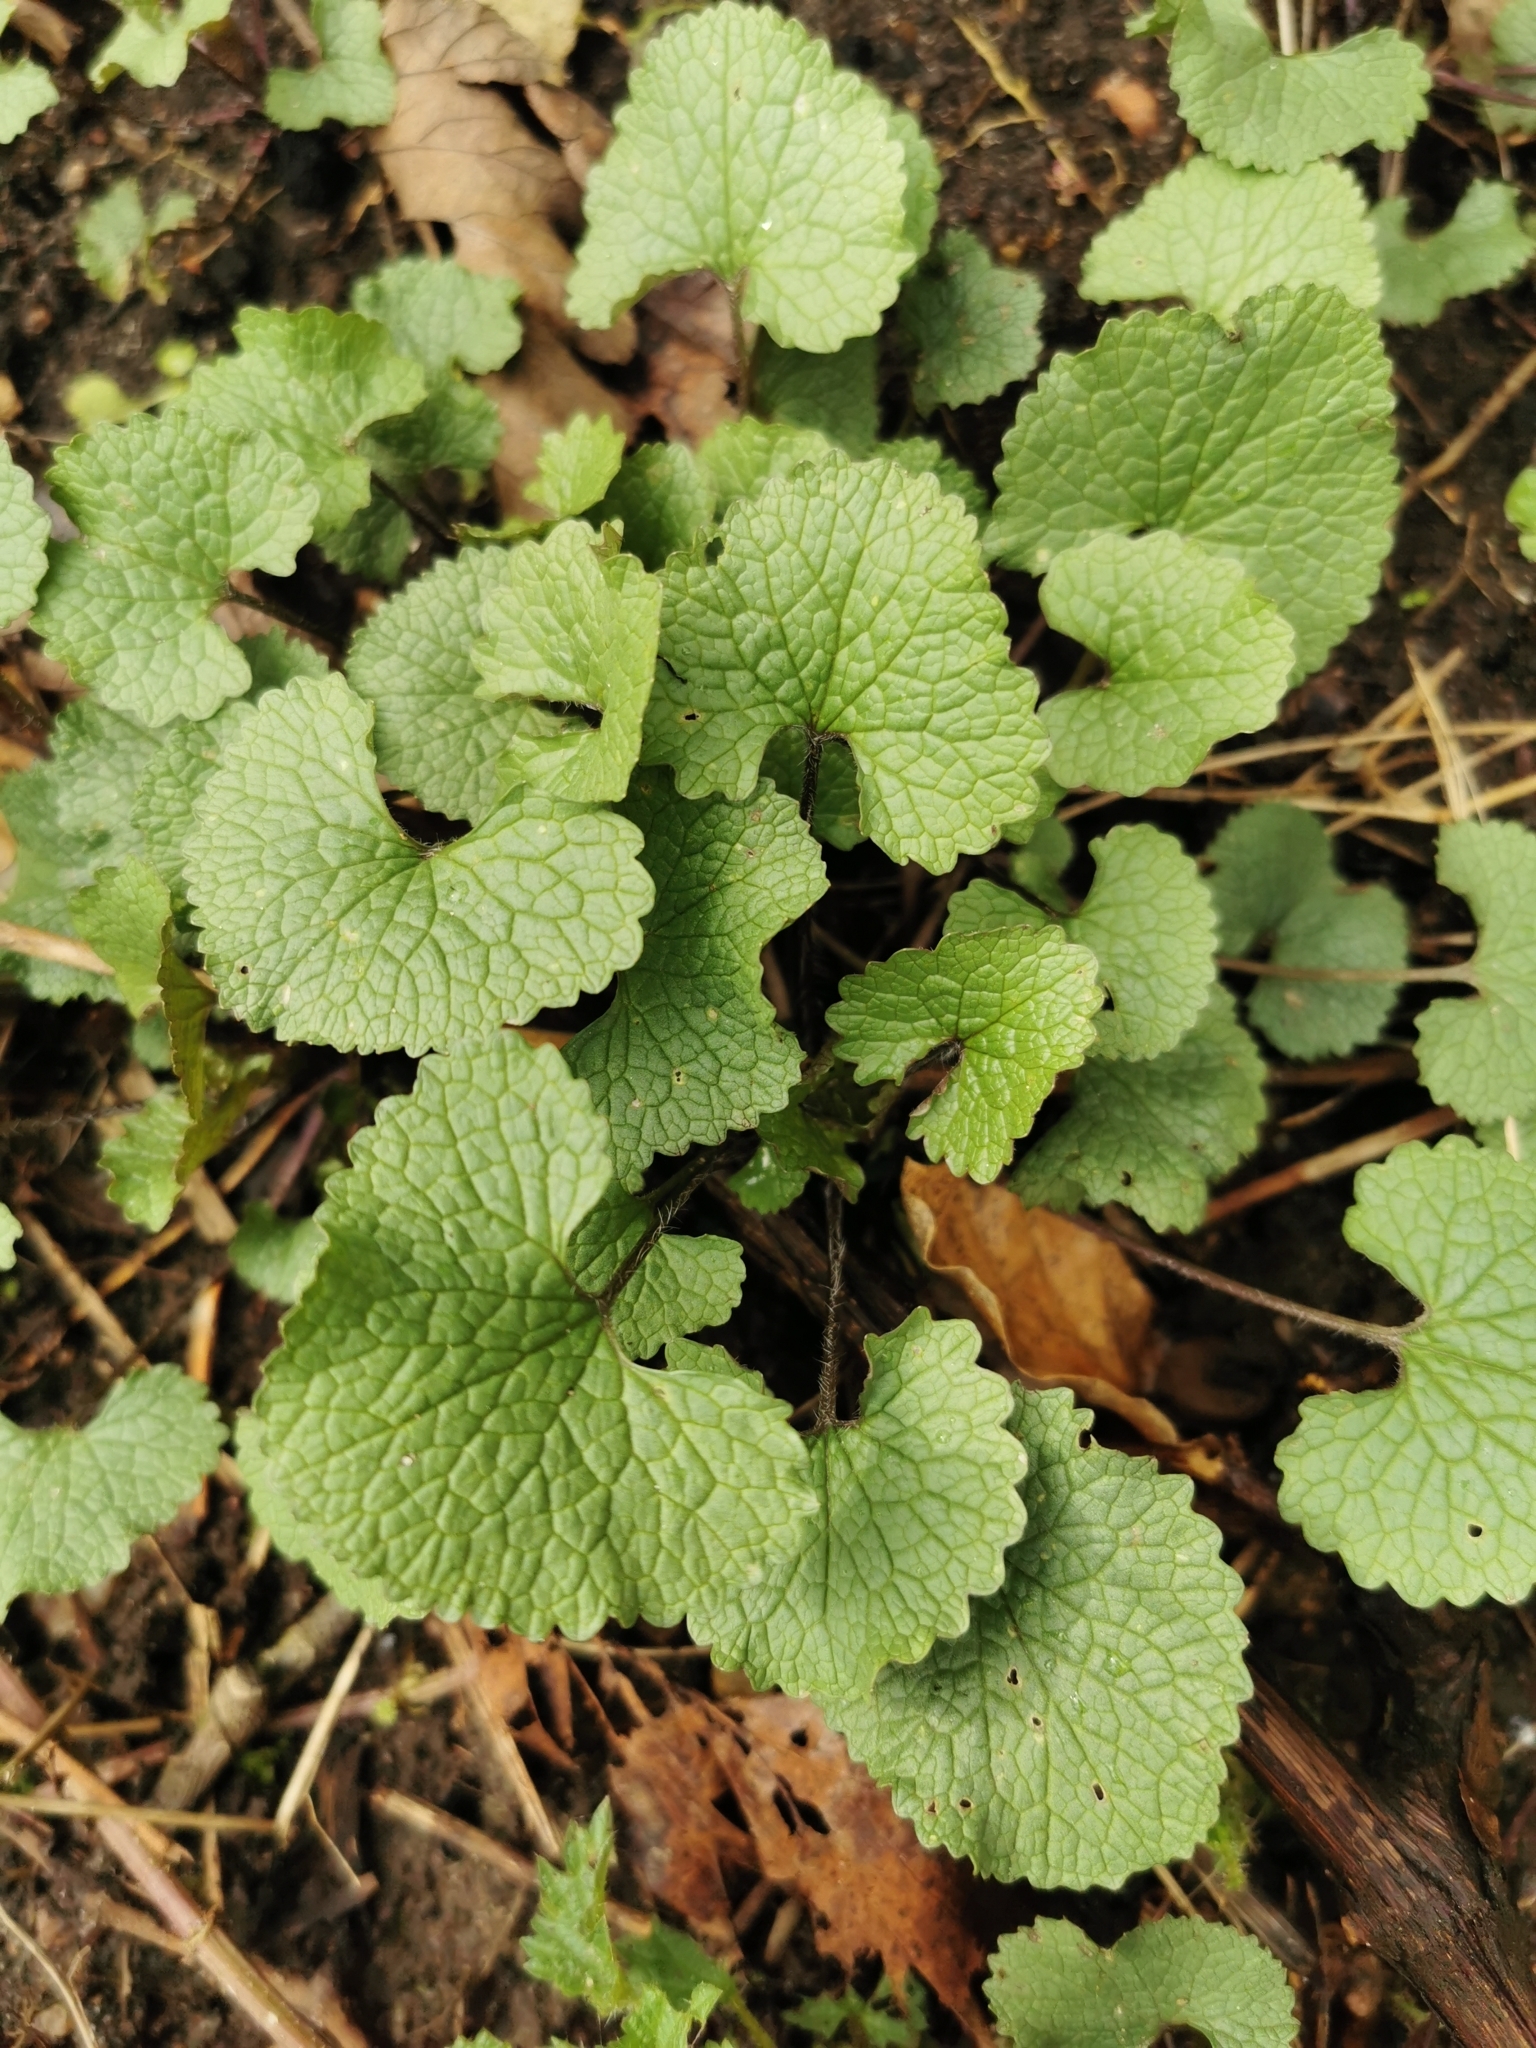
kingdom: Plantae
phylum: Tracheophyta
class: Magnoliopsida
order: Brassicales
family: Brassicaceae
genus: Alliaria
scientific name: Alliaria petiolata
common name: Garlic mustard
